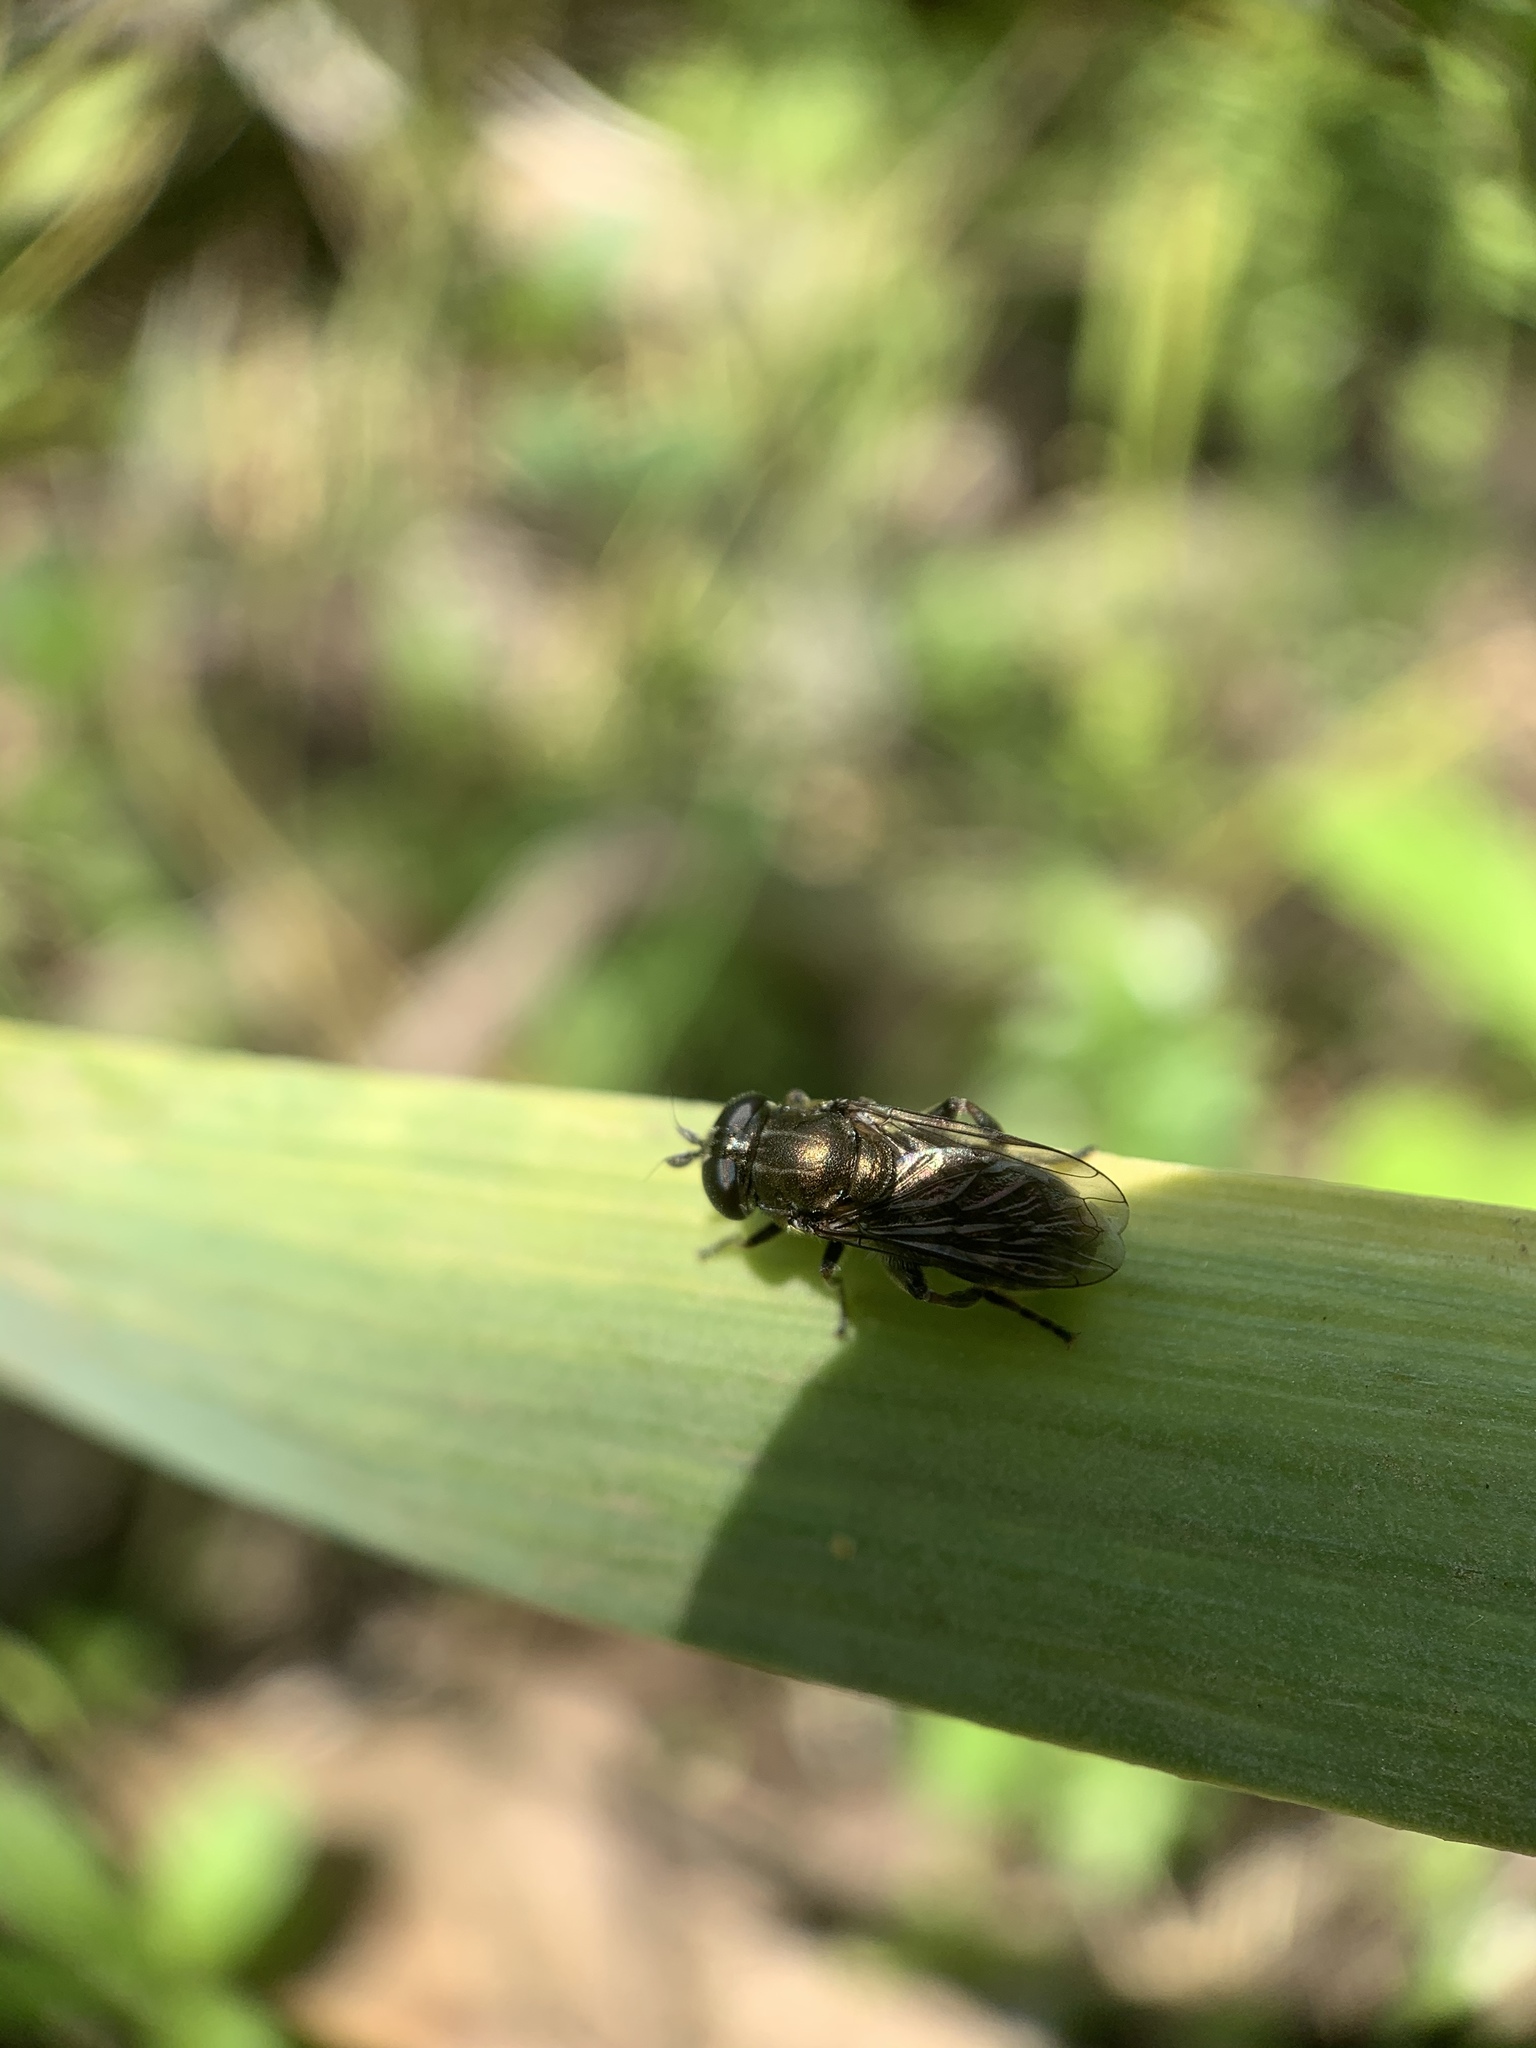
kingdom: Animalia
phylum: Arthropoda
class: Insecta
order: Diptera
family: Syrphidae
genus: Eumerus
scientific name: Eumerus
